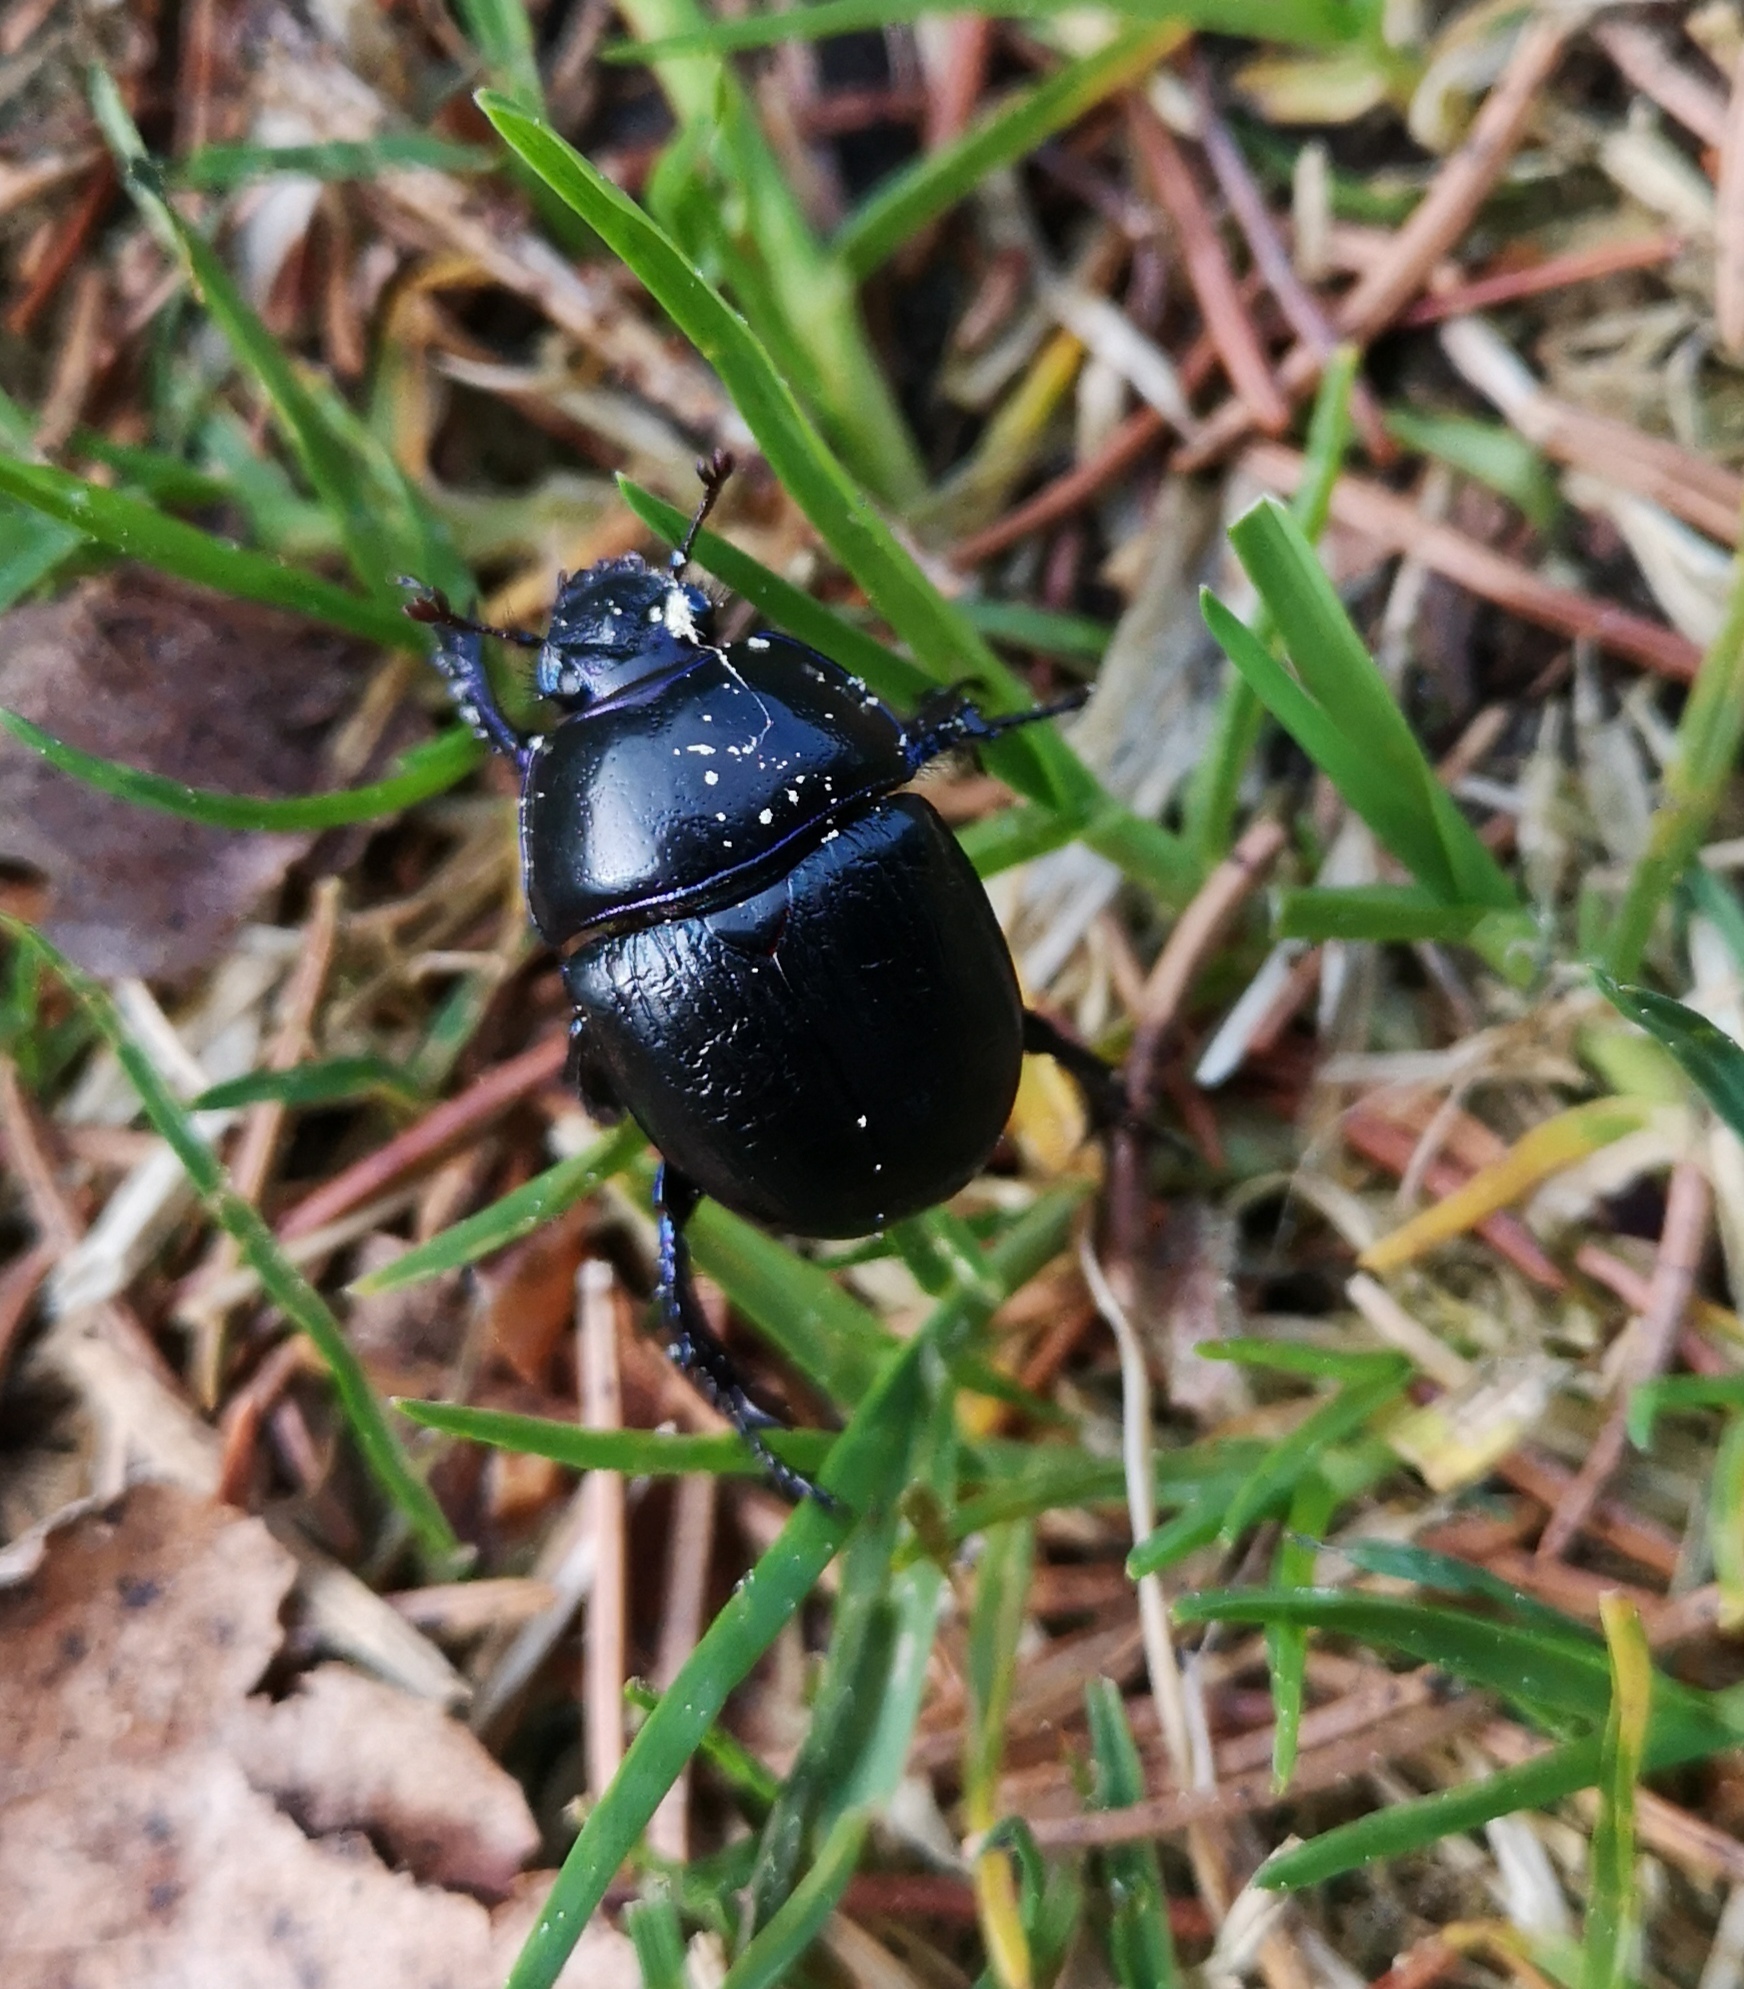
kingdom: Animalia
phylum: Arthropoda
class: Insecta
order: Coleoptera
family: Geotrupidae
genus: Anoplotrupes
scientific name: Anoplotrupes stercorosus
